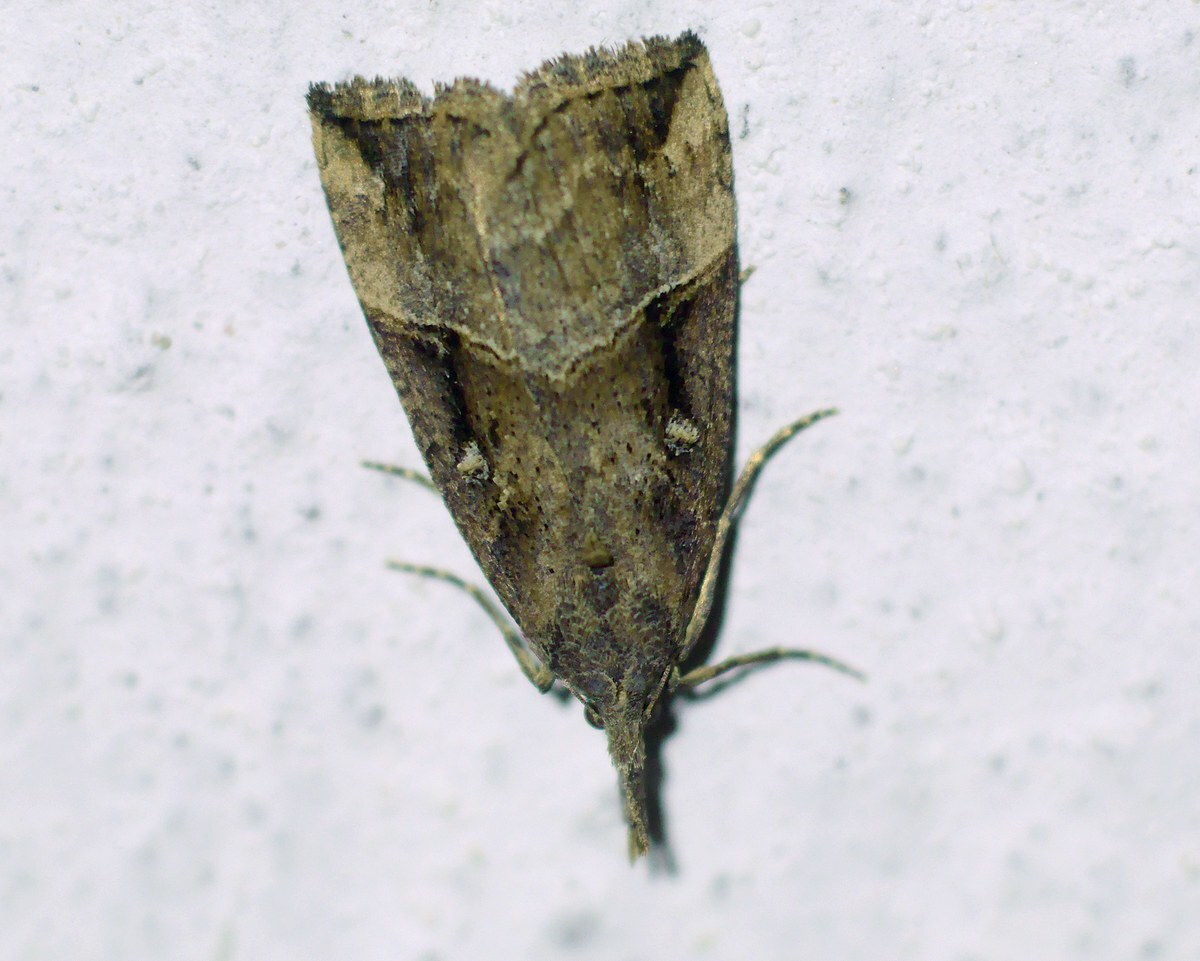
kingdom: Animalia
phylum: Arthropoda
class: Insecta
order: Lepidoptera
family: Erebidae
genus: Hypena
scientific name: Hypena rostralis
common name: Buttoned snout
